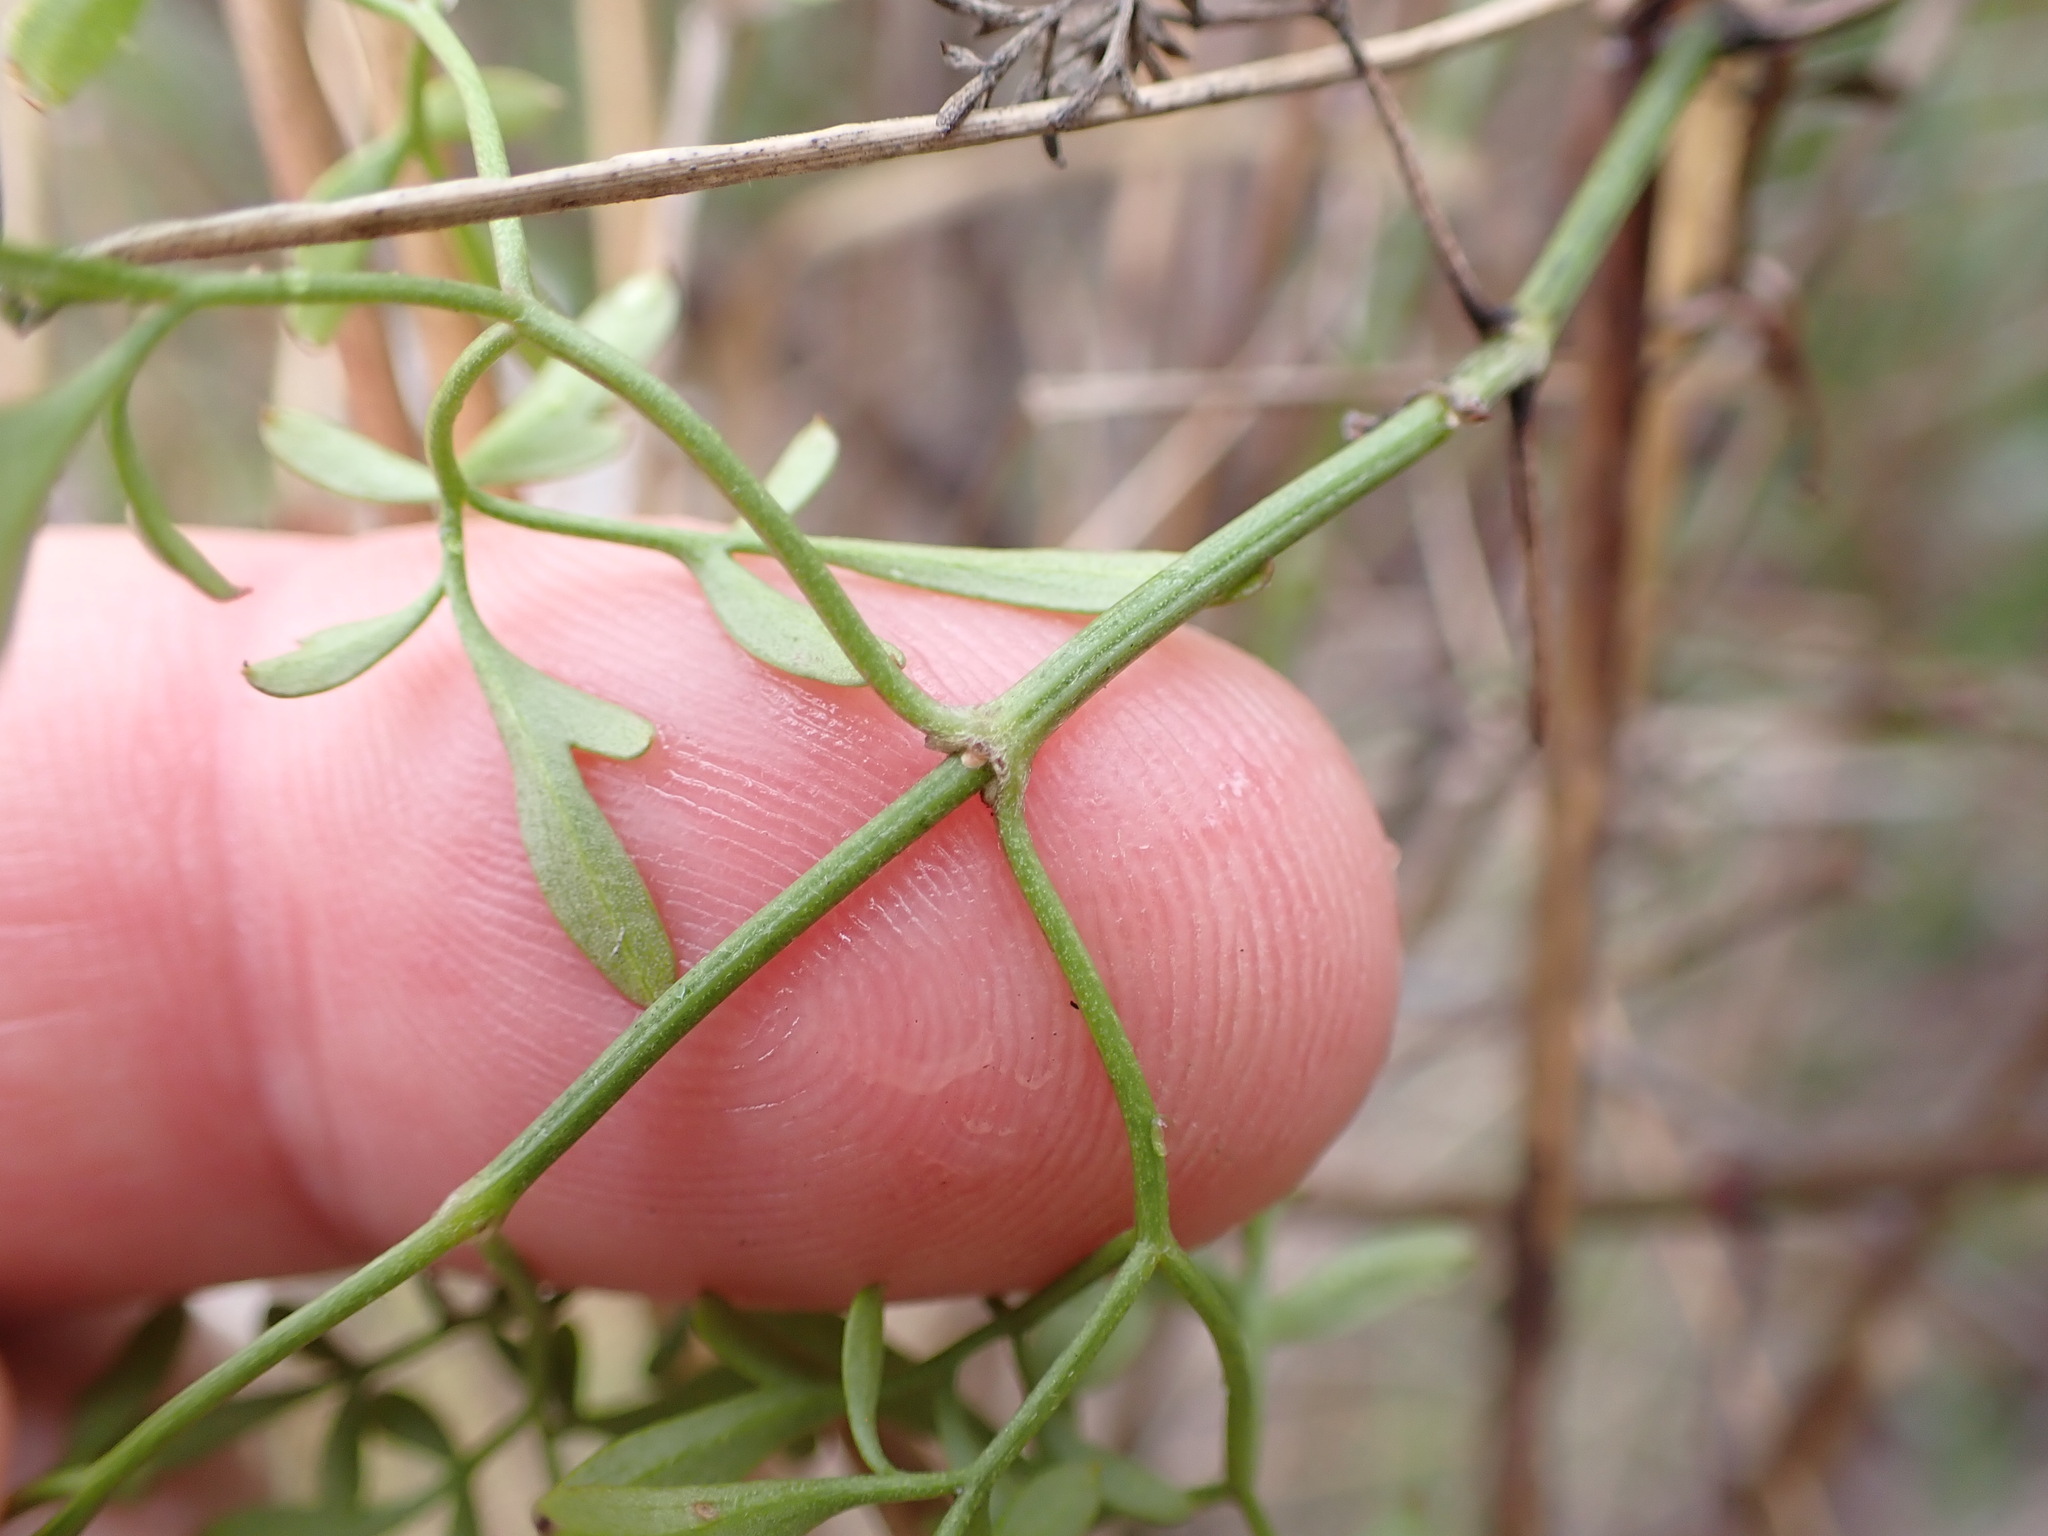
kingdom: Plantae
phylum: Tracheophyta
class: Magnoliopsida
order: Ranunculales
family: Ranunculaceae
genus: Clematis
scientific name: Clematis leptophylla
